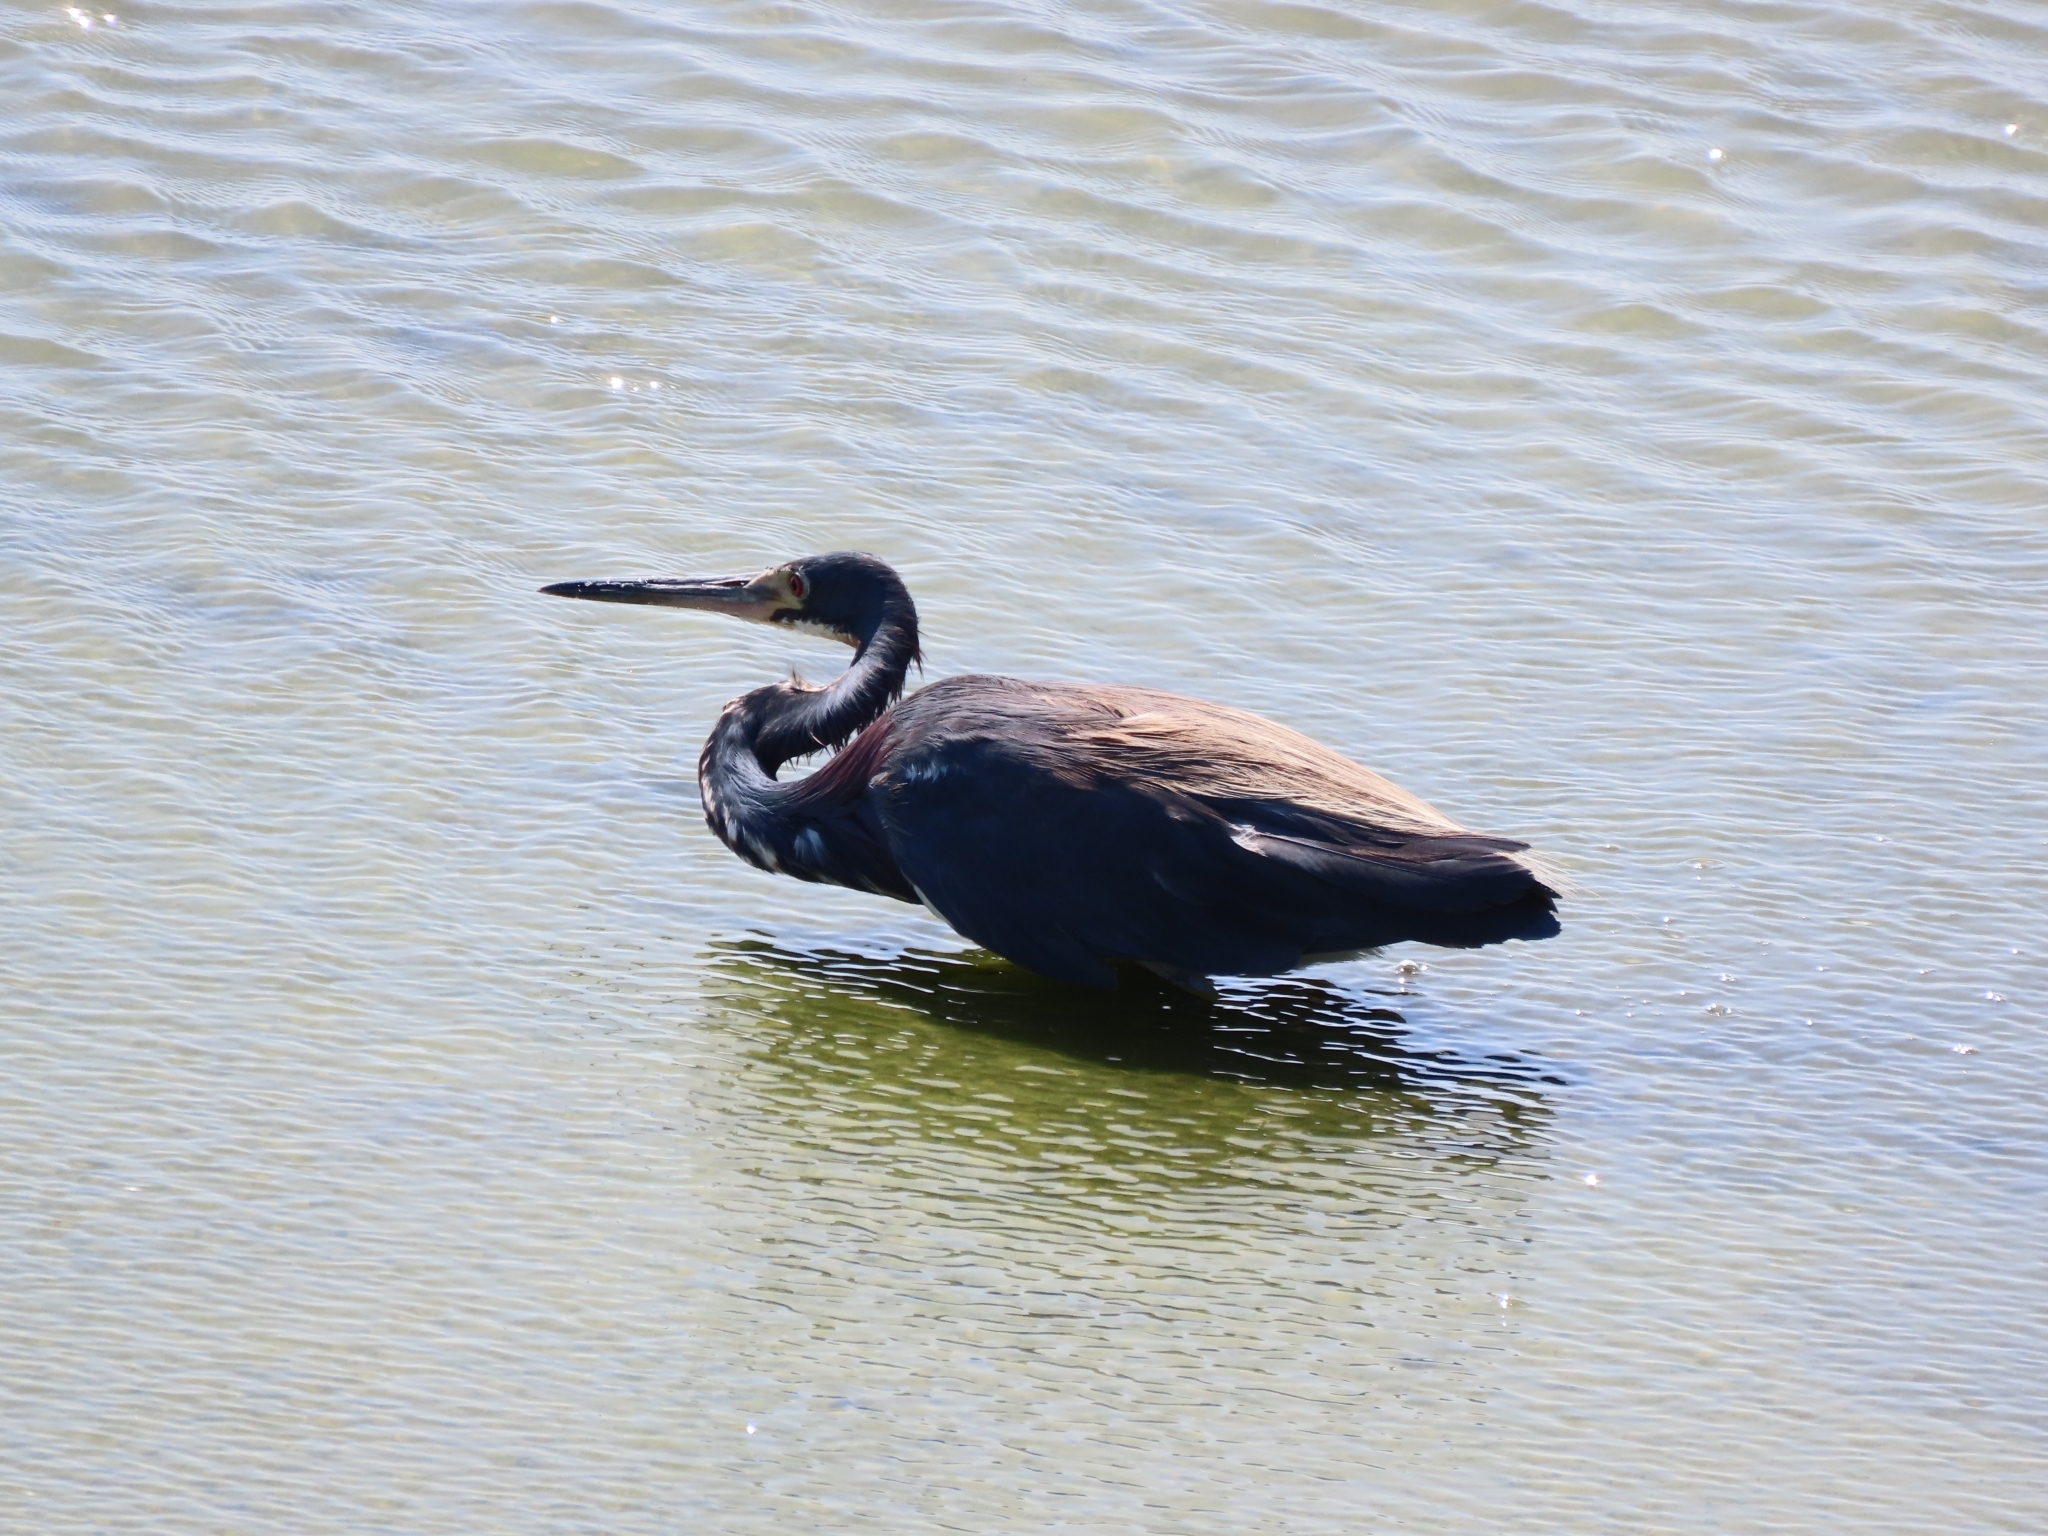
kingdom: Animalia
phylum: Chordata
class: Aves
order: Pelecaniformes
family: Ardeidae
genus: Egretta
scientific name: Egretta tricolor
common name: Tricolored heron
